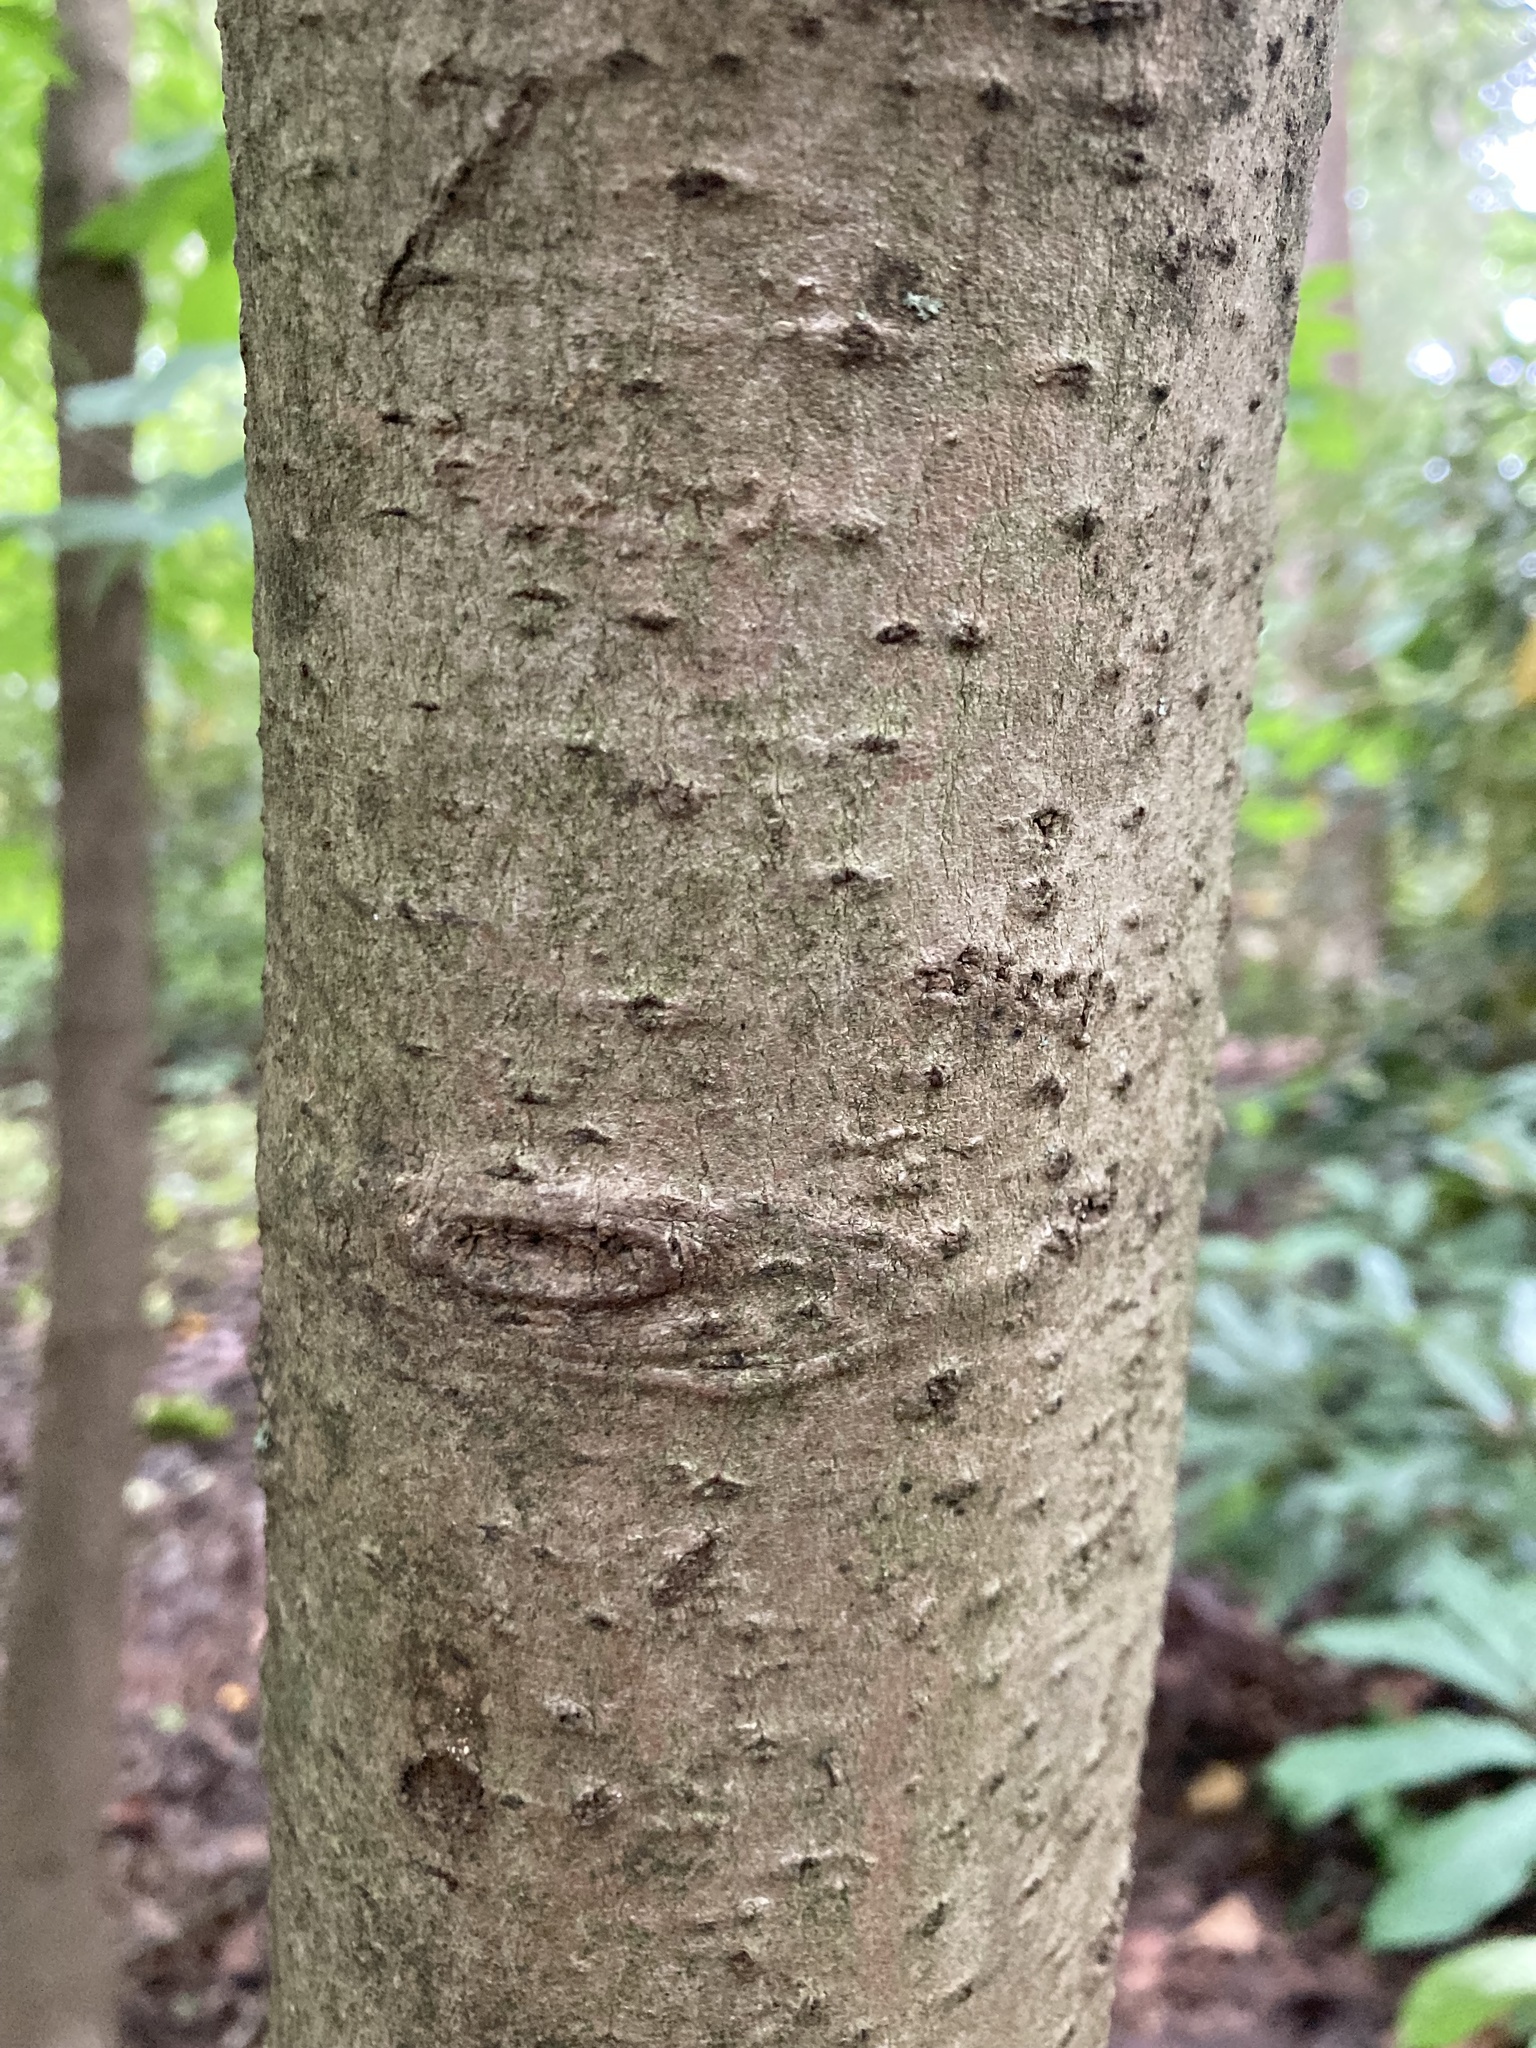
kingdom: Plantae
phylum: Tracheophyta
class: Magnoliopsida
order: Magnoliales
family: Annonaceae
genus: Asimina
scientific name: Asimina triloba
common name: Dog-banana
